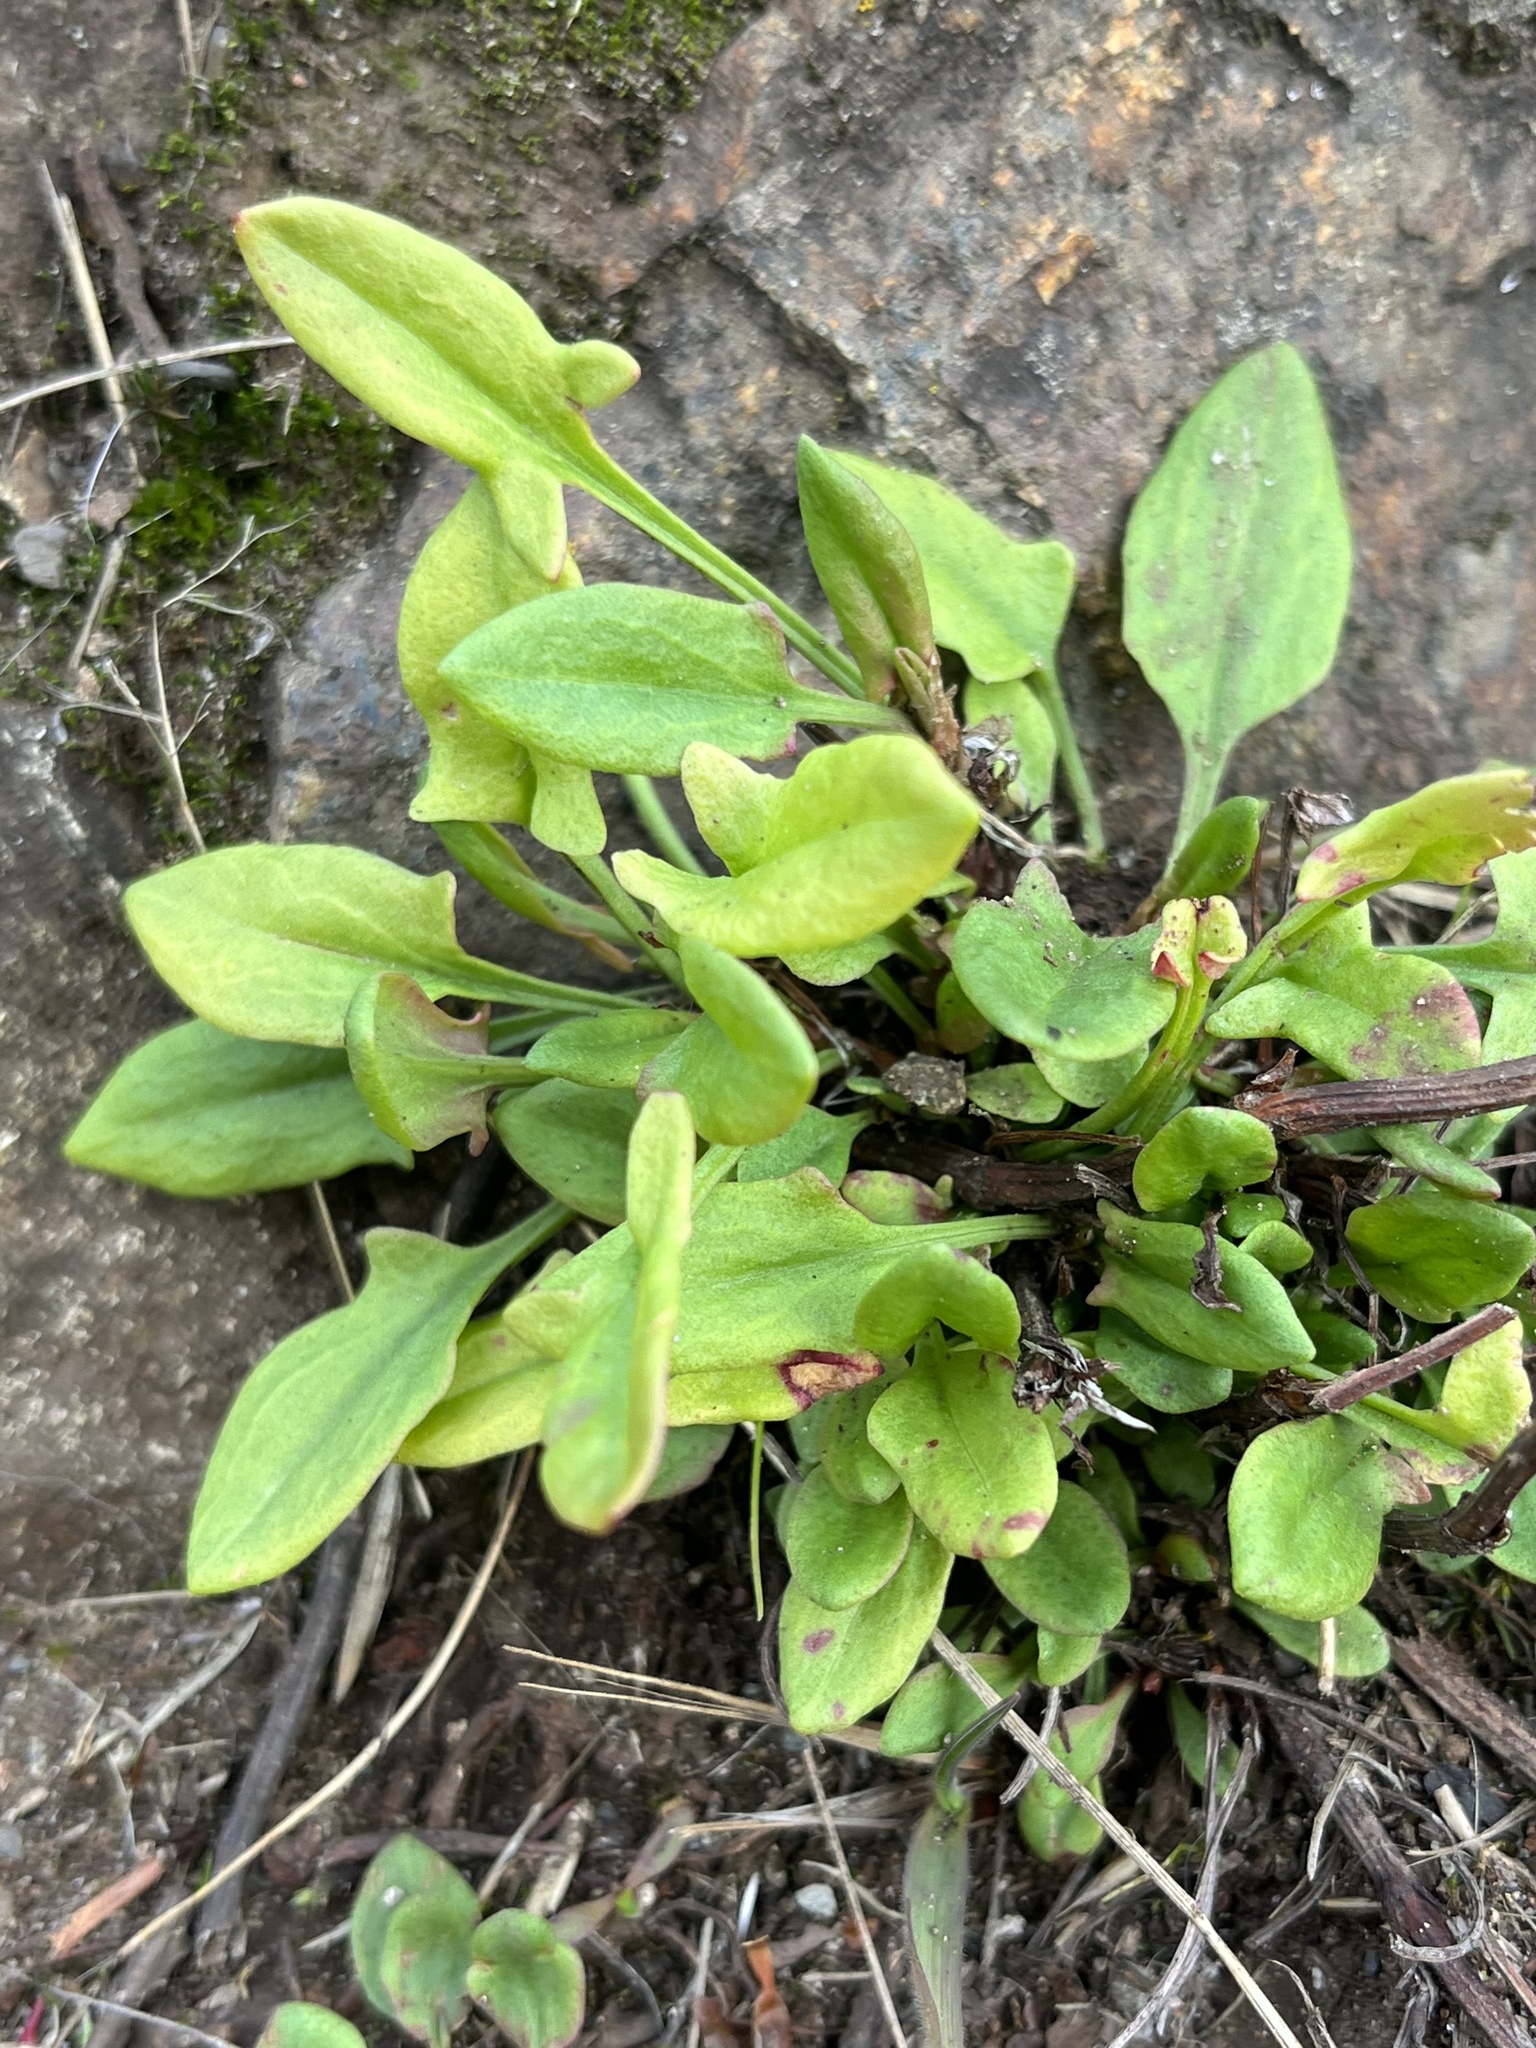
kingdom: Plantae
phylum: Tracheophyta
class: Magnoliopsida
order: Caryophyllales
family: Polygonaceae
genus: Rumex
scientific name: Rumex acetosa
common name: Garden sorrel
